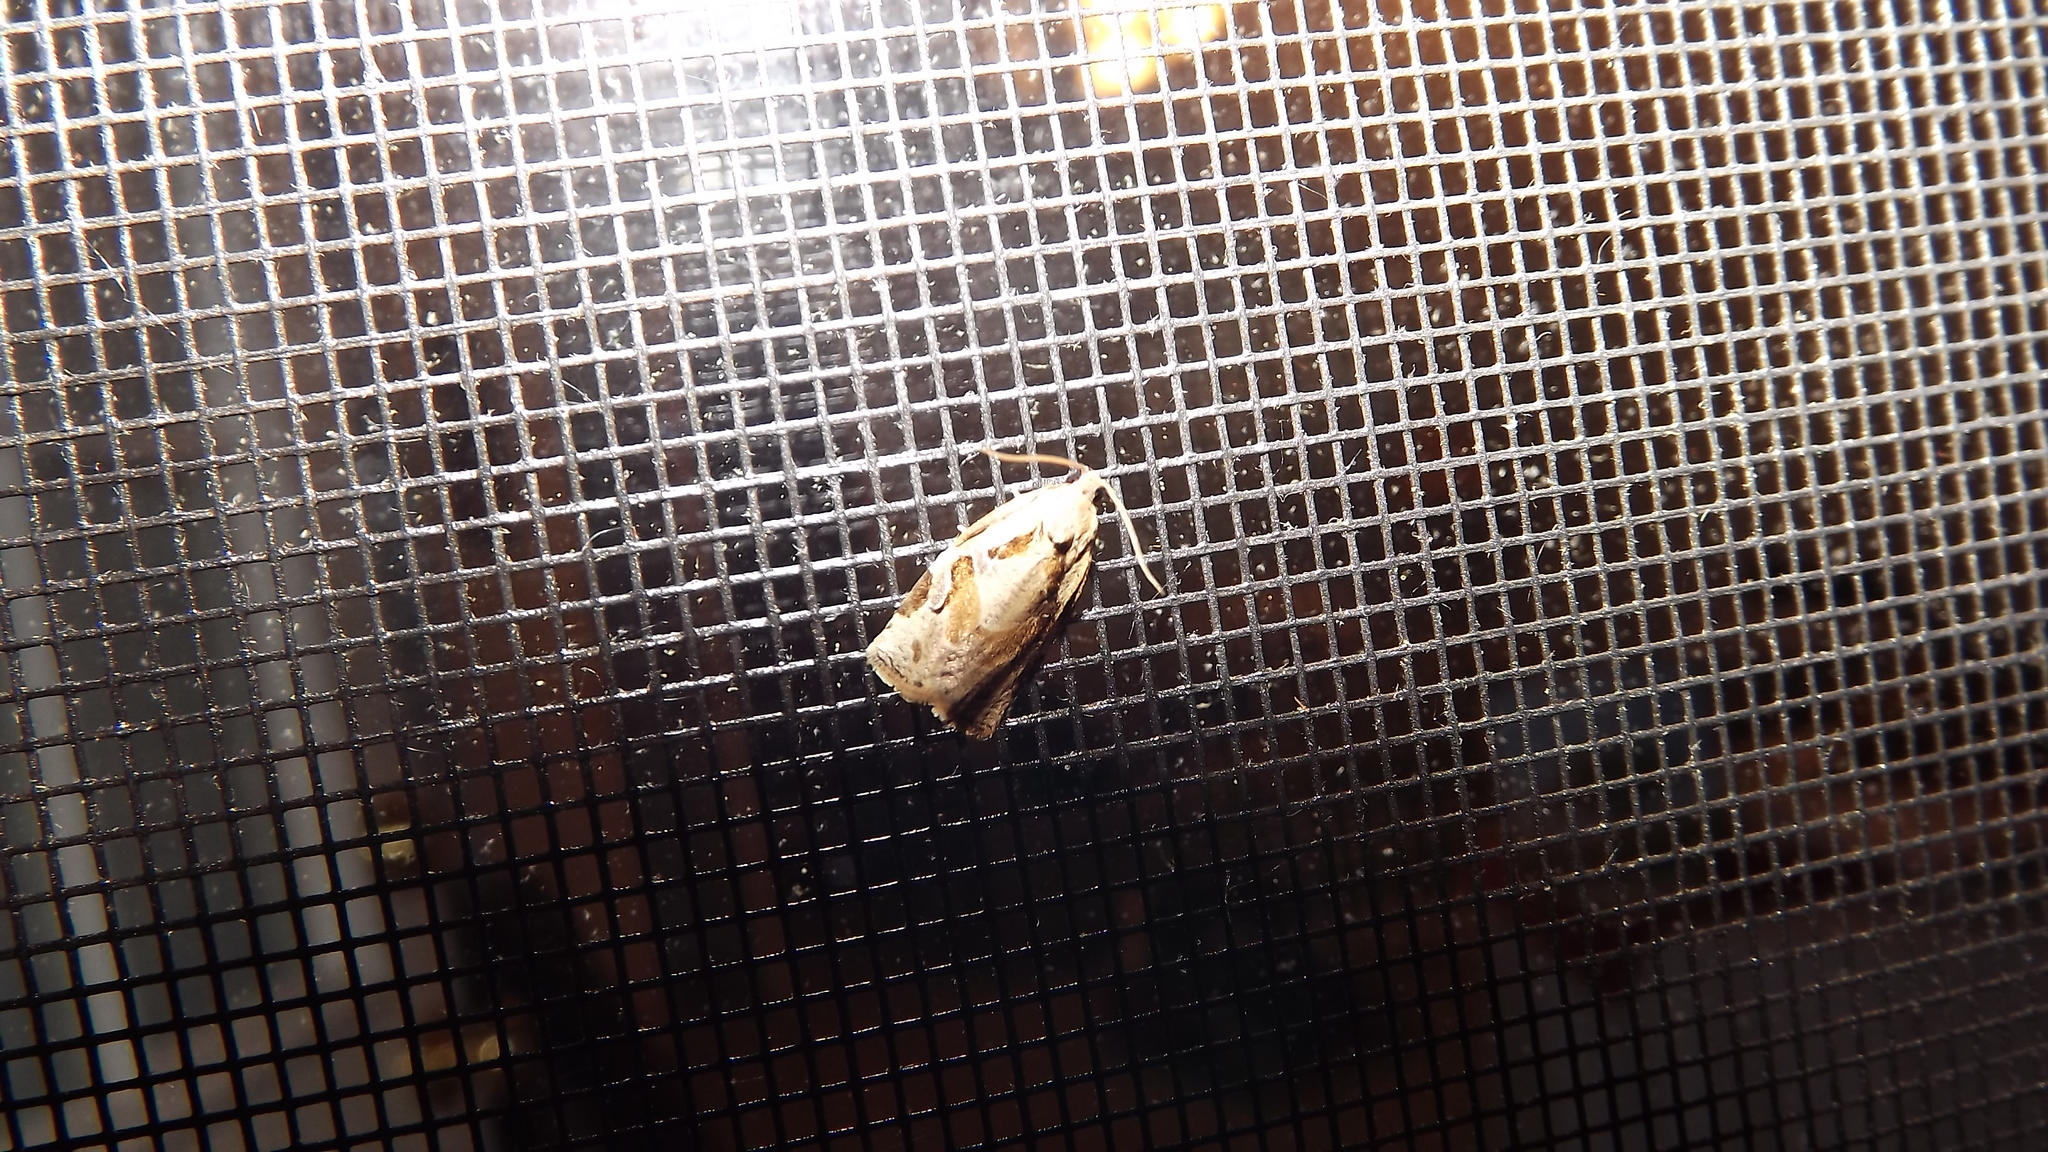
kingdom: Animalia
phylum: Arthropoda
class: Insecta
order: Lepidoptera
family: Tortricidae
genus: Archips
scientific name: Archips grisea
